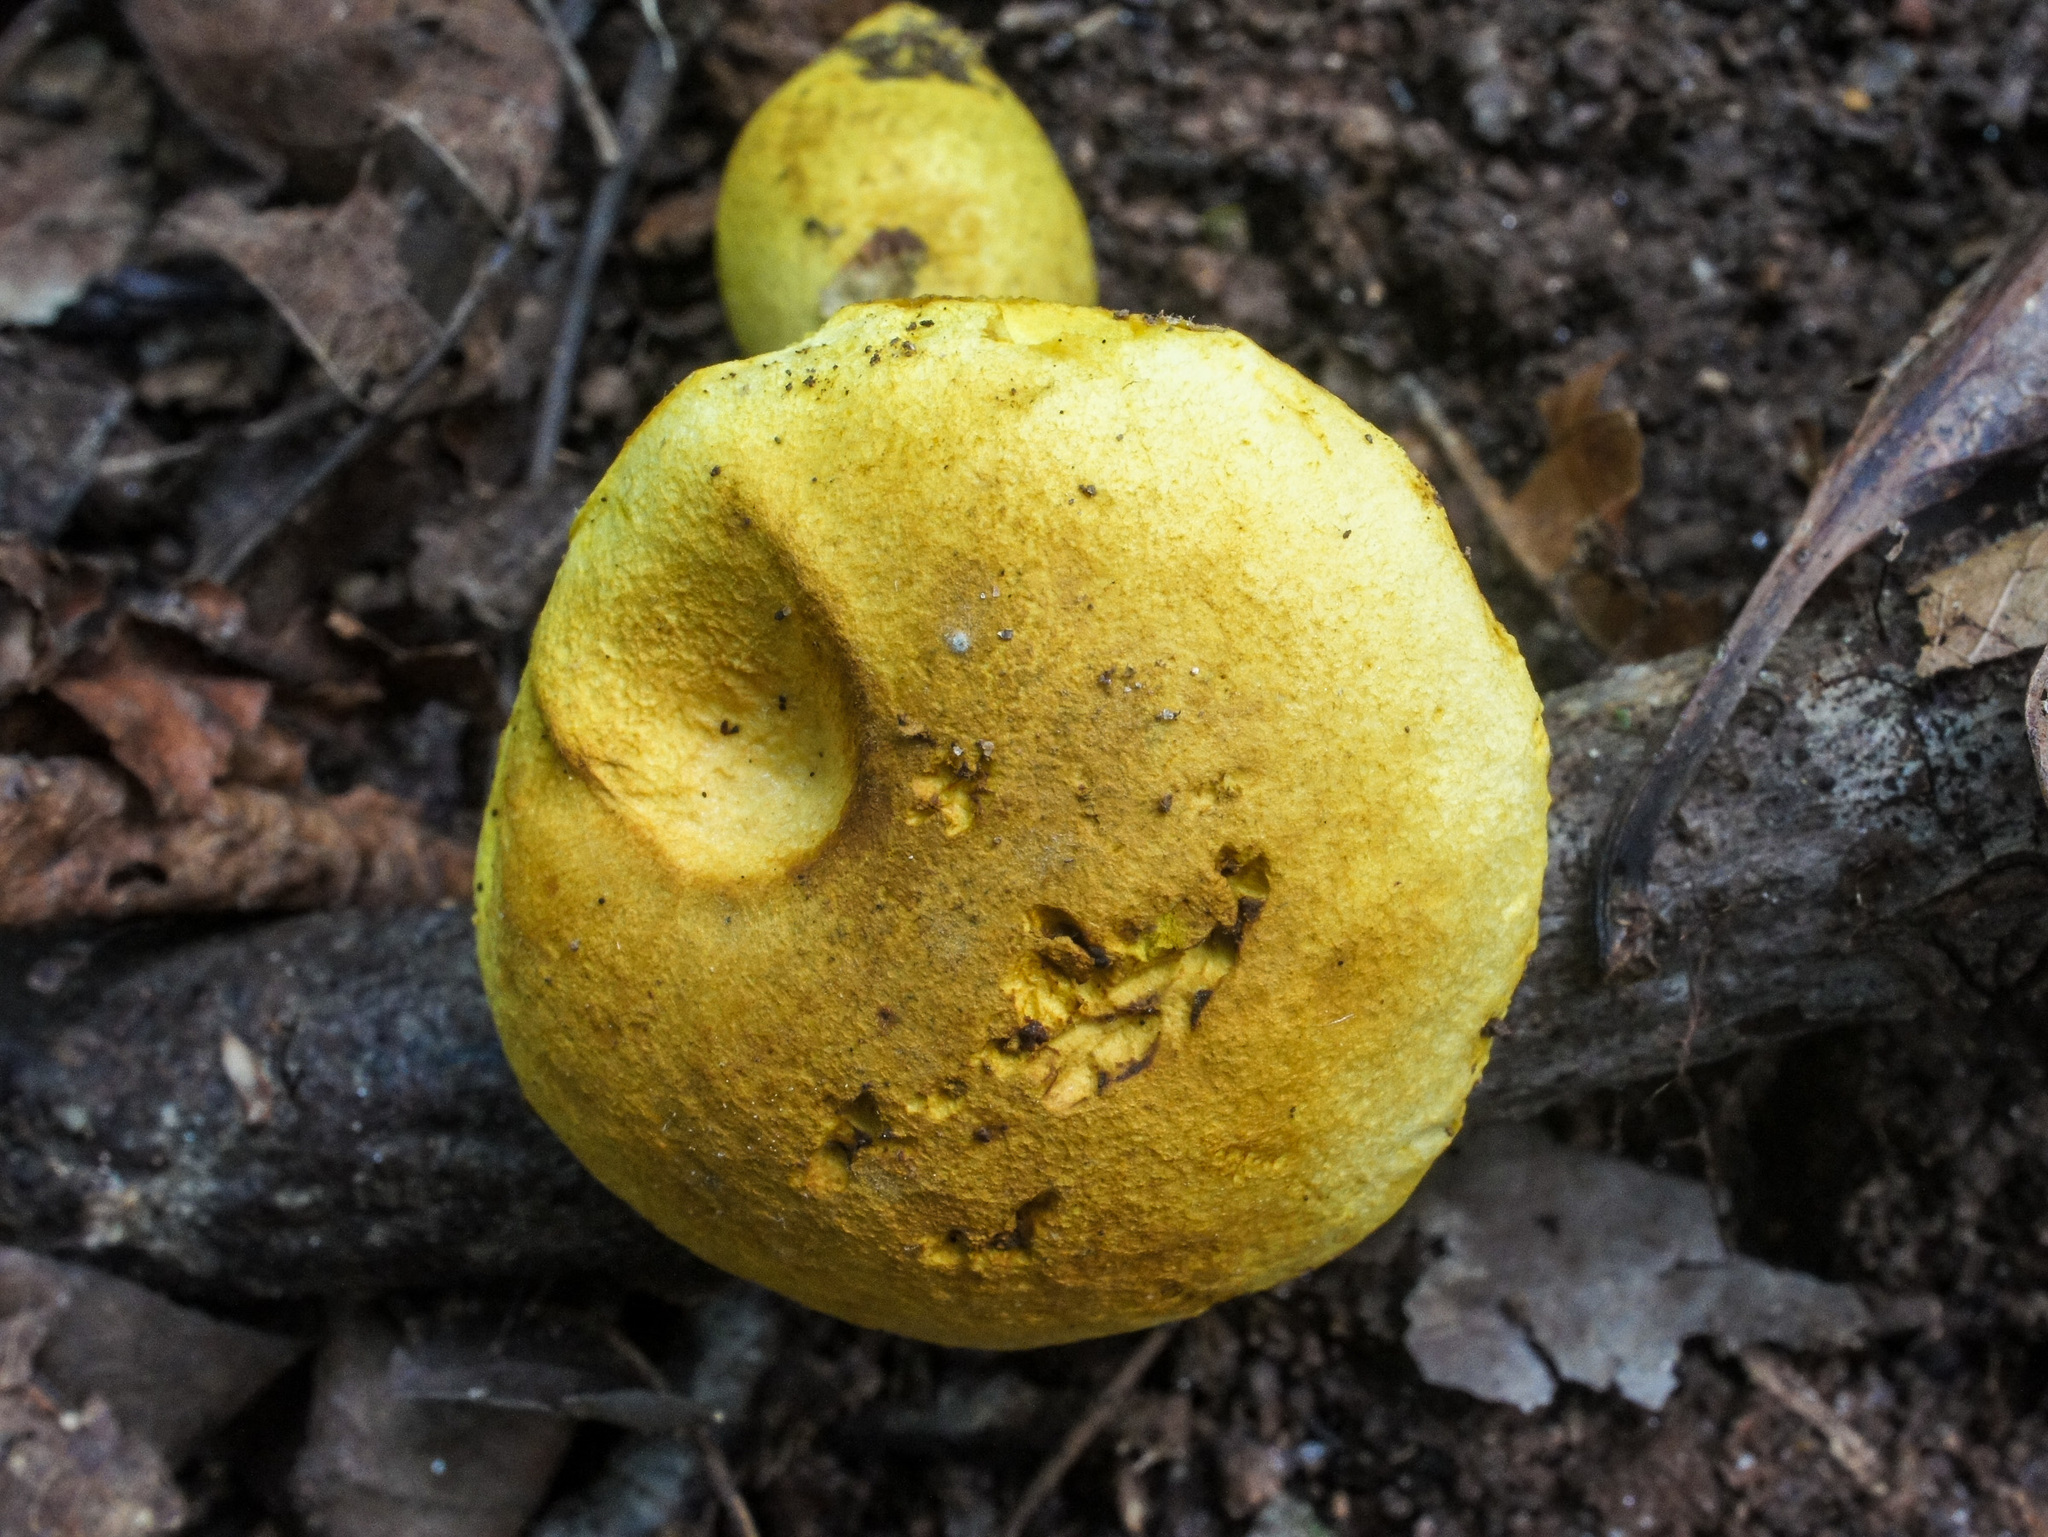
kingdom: Fungi
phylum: Basidiomycota
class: Agaricomycetes
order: Boletales
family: Boletaceae
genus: Retiboletus
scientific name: Retiboletus ornatipes
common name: Ornate-stalked bolete
